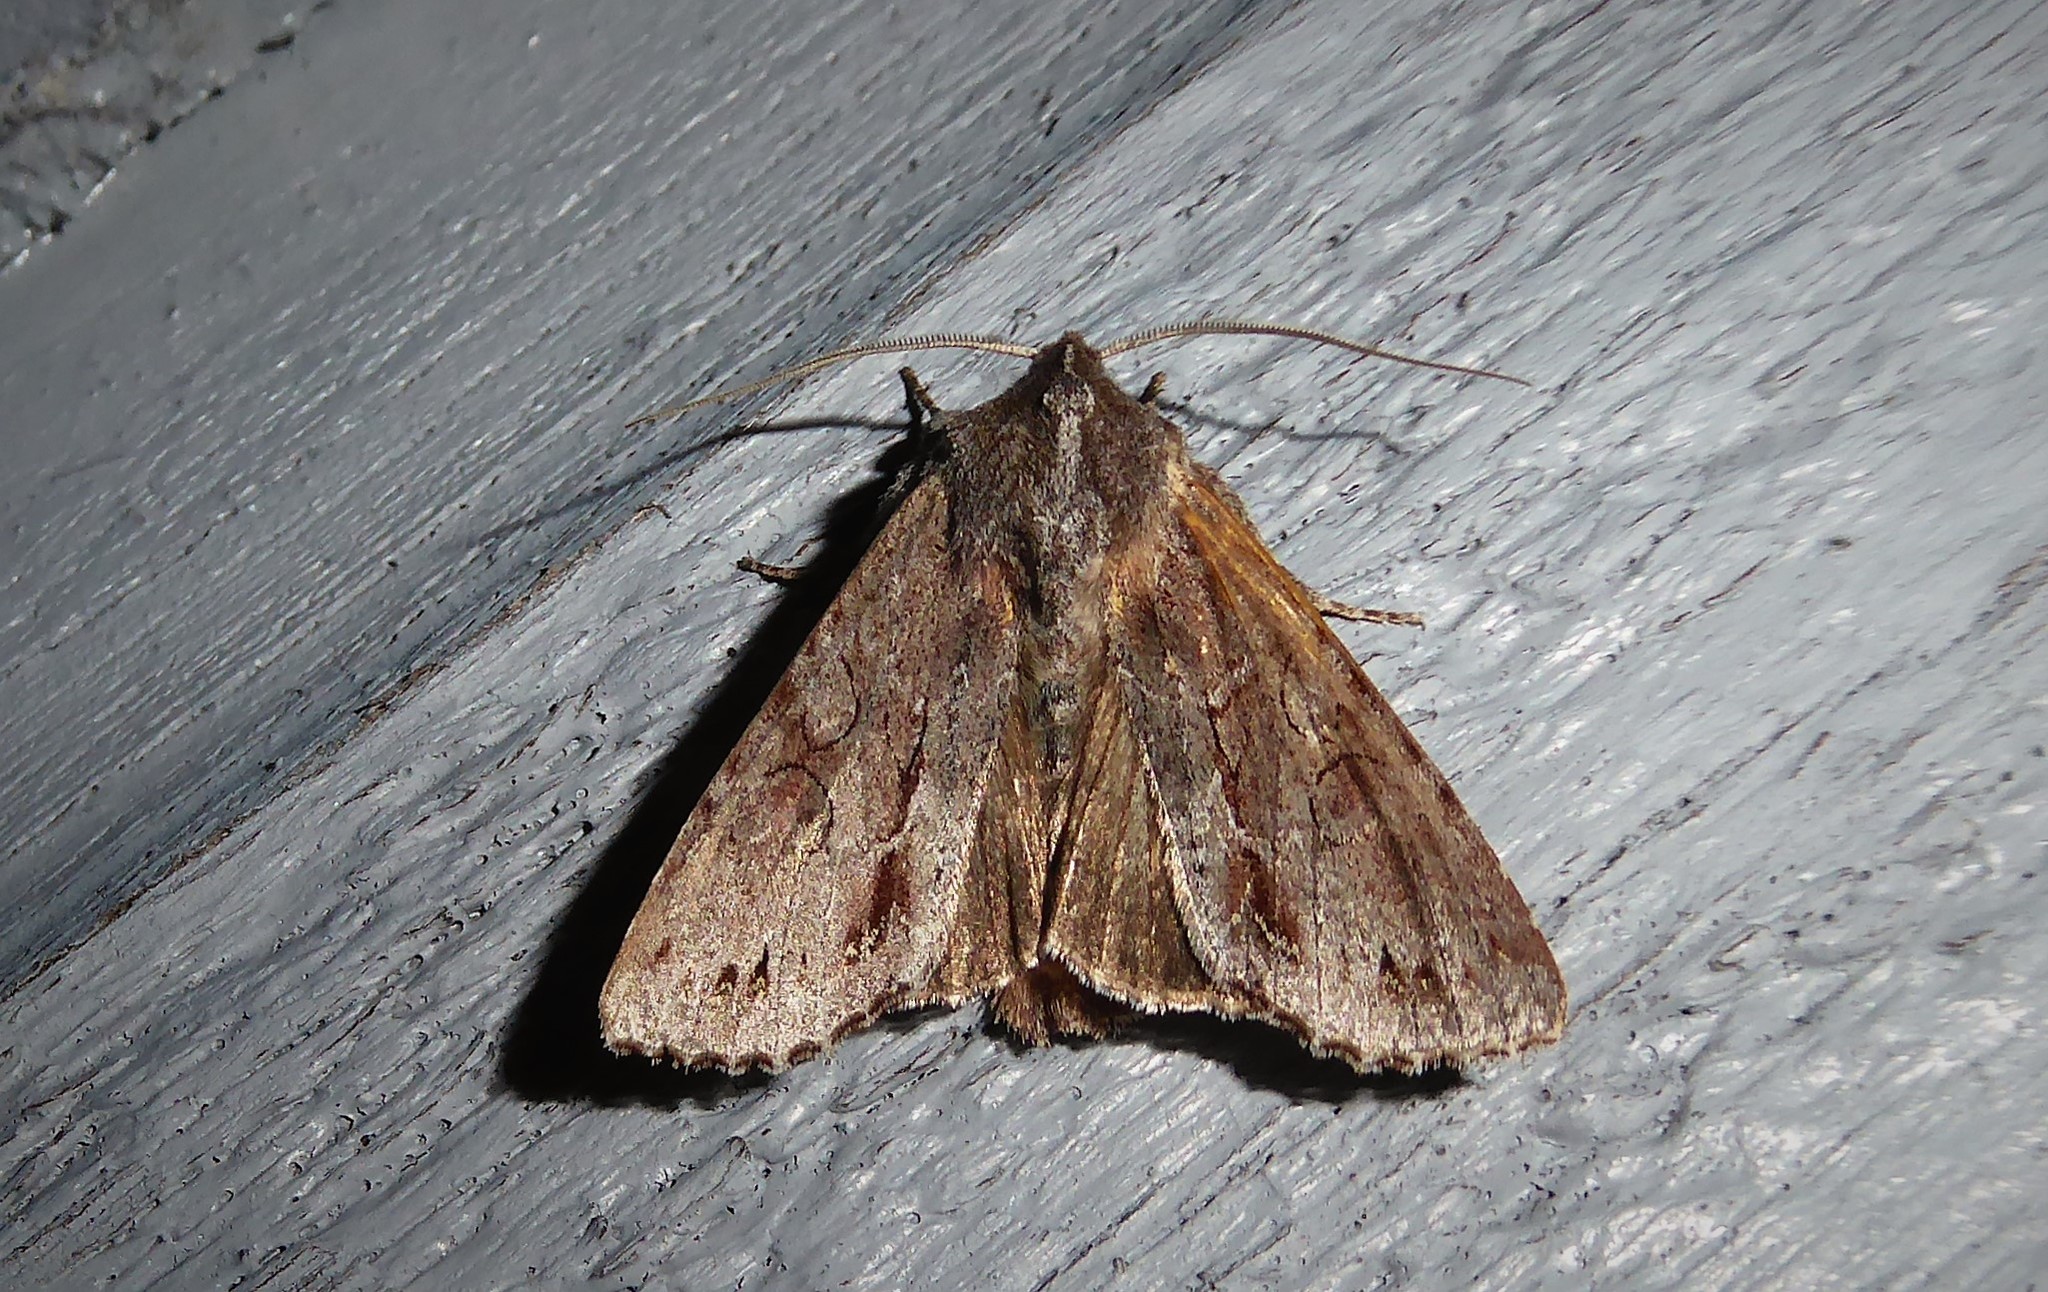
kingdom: Animalia
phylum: Arthropoda
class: Insecta
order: Lepidoptera
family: Noctuidae
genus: Ichneutica
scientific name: Ichneutica
